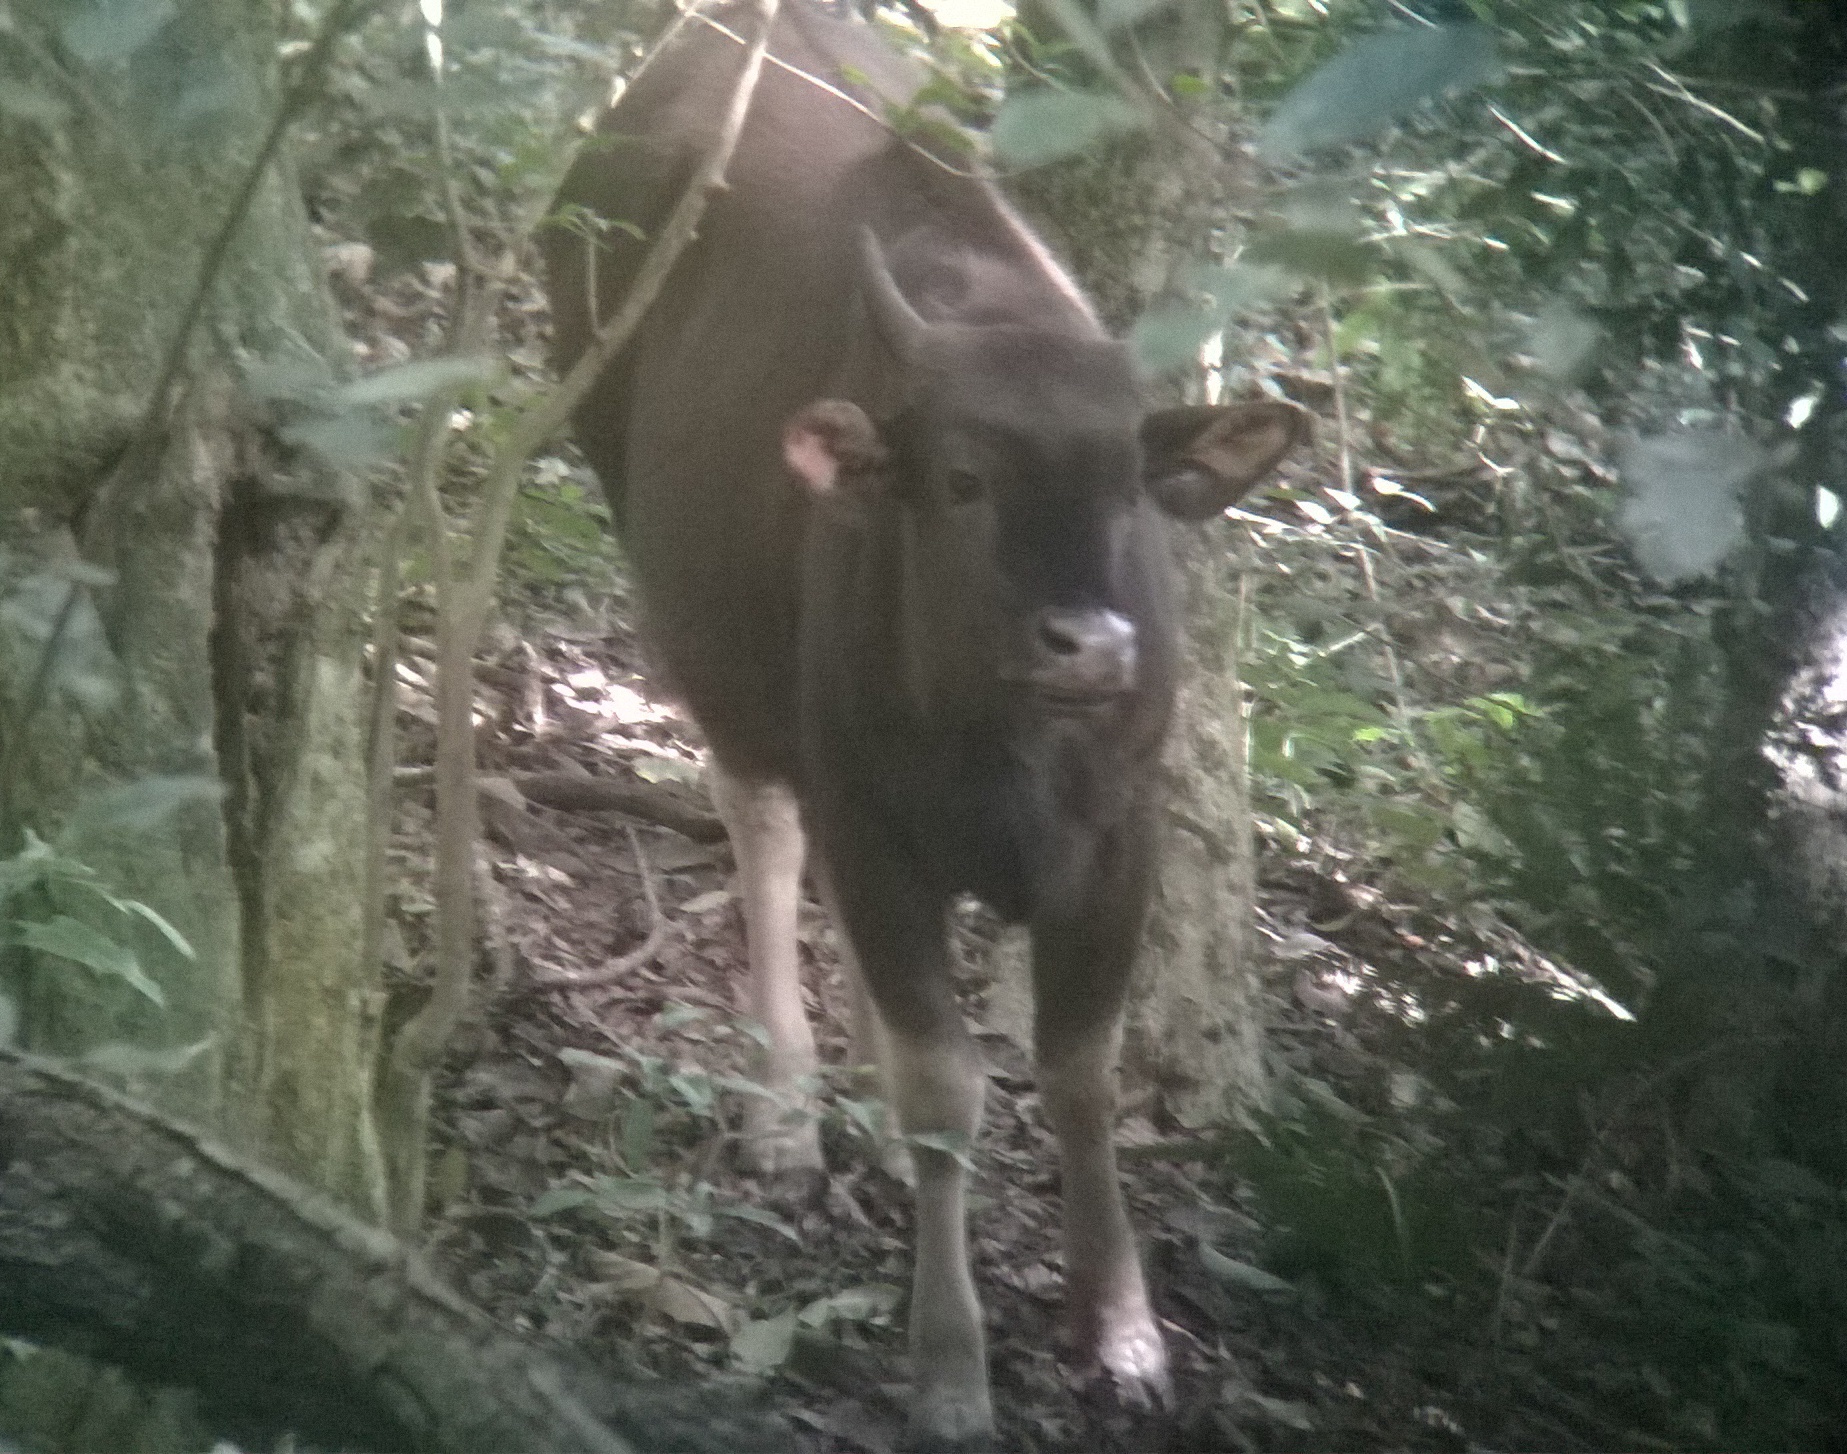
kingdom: Animalia
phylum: Chordata
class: Mammalia
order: Artiodactyla
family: Bovidae
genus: Bos
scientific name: Bos frontalis
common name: Gaur
